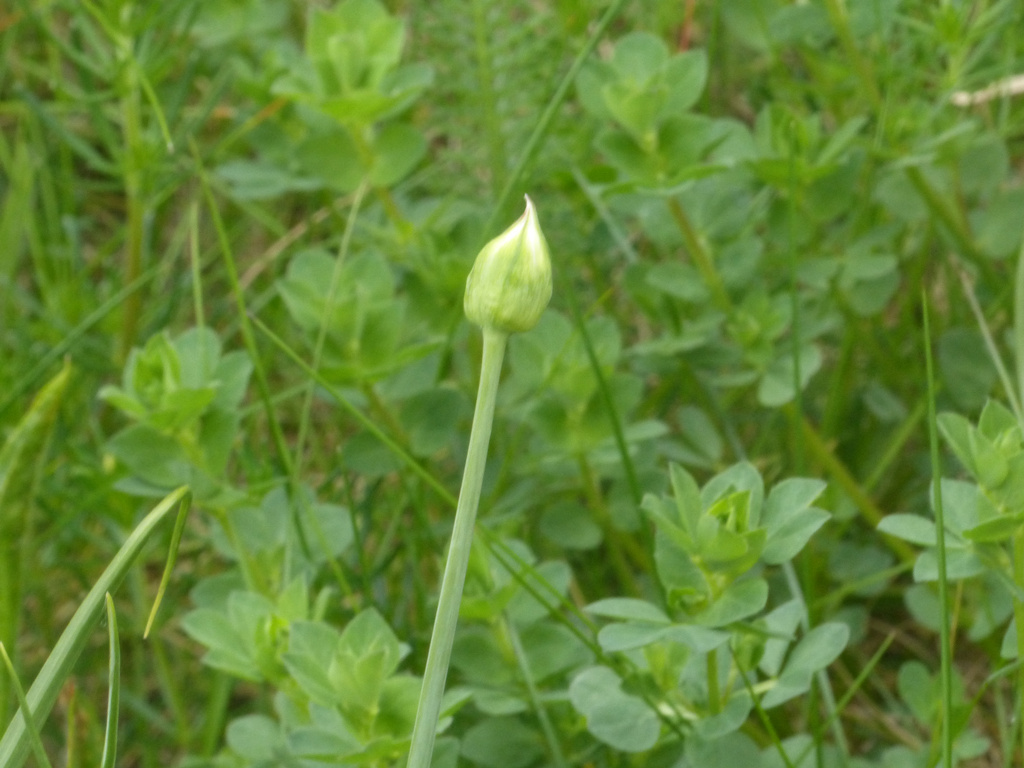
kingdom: Plantae
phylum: Tracheophyta
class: Liliopsida
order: Asparagales
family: Amaryllidaceae
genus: Allium
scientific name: Allium roseum
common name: Rosy garlic
